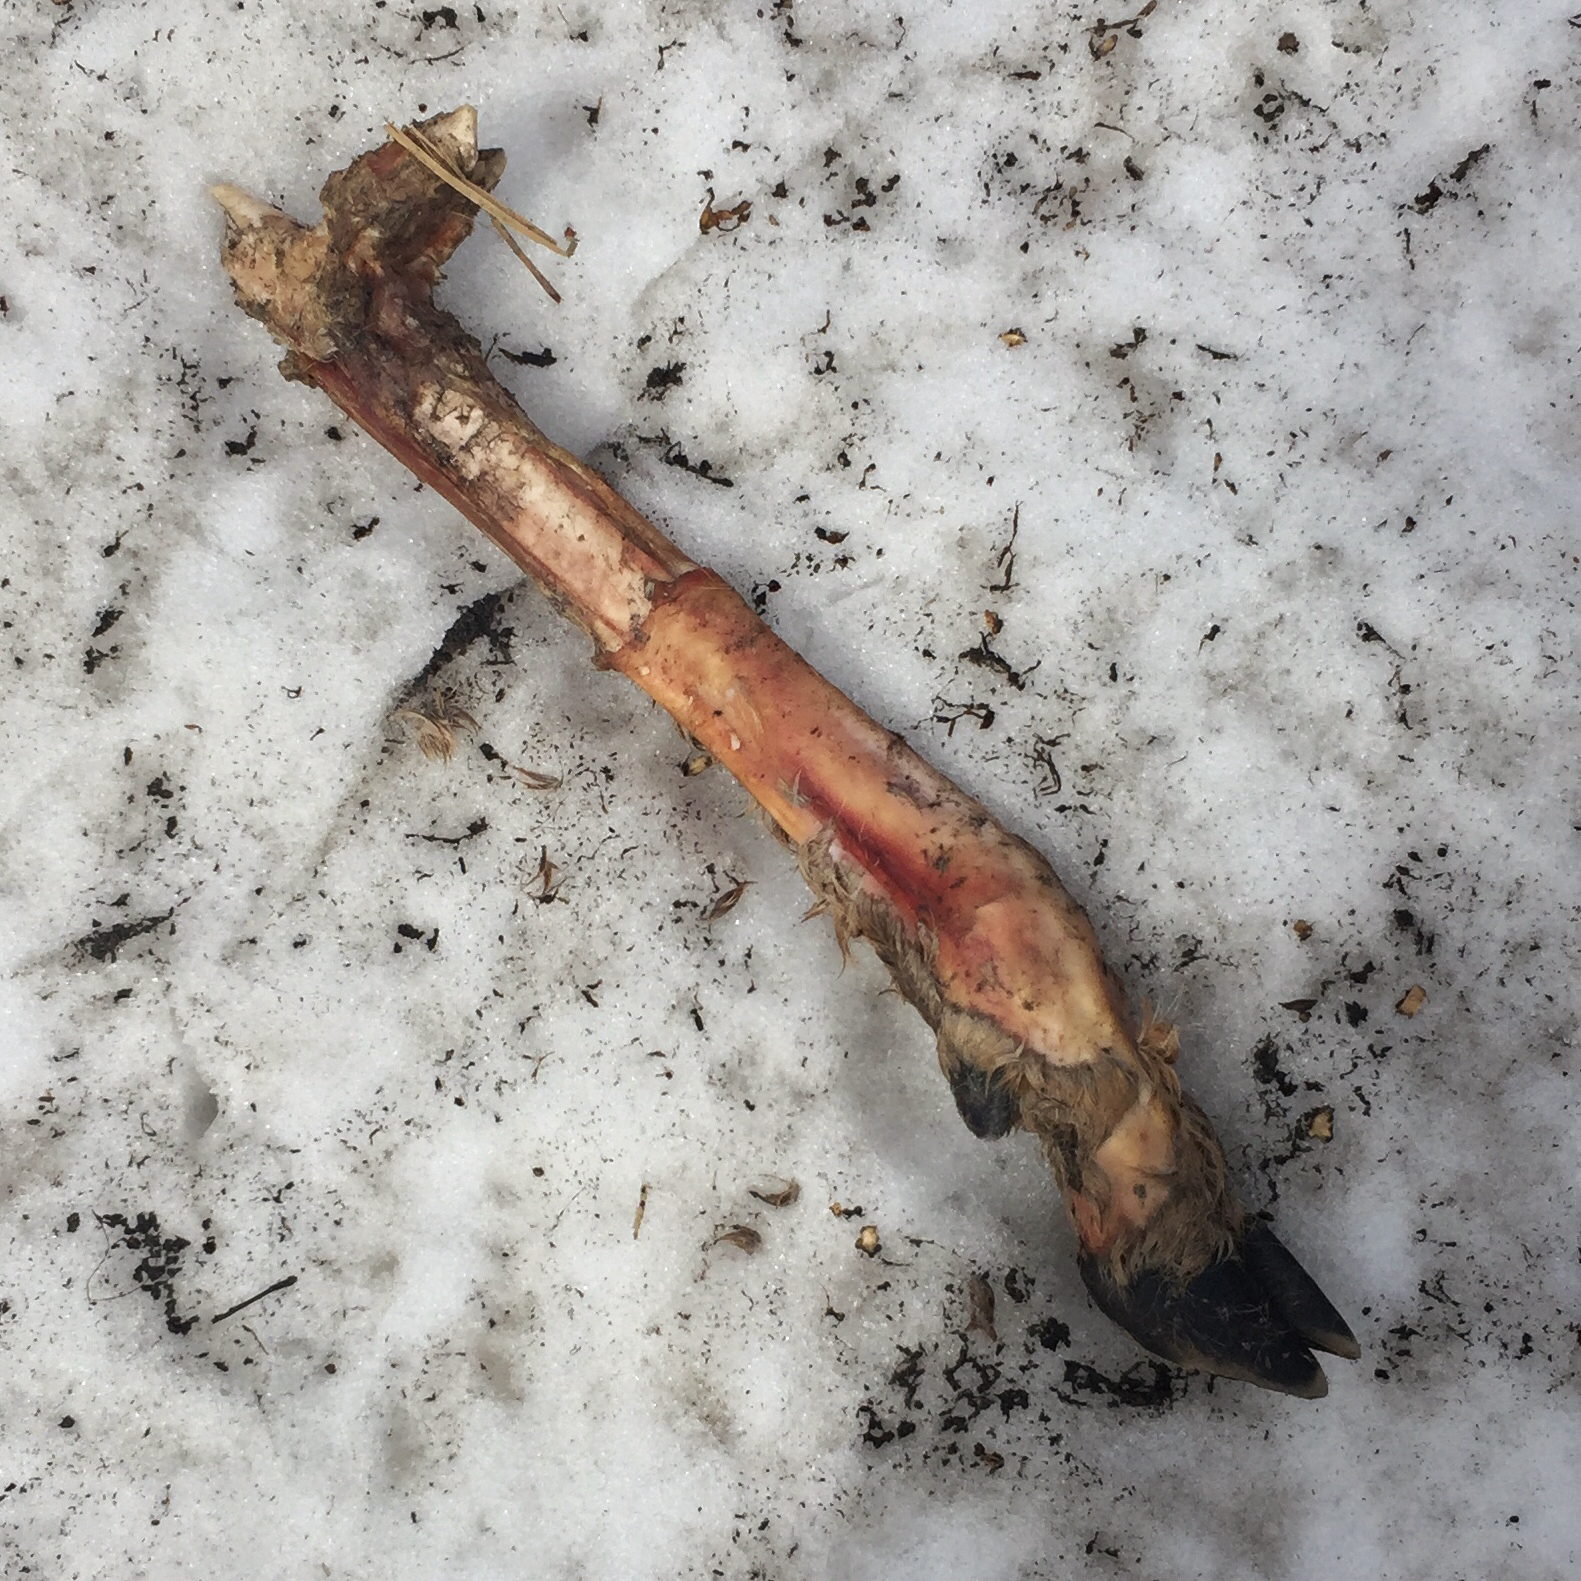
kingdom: Animalia
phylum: Chordata
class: Mammalia
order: Artiodactyla
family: Cervidae
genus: Odocoileus
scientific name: Odocoileus virginianus
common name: White-tailed deer
